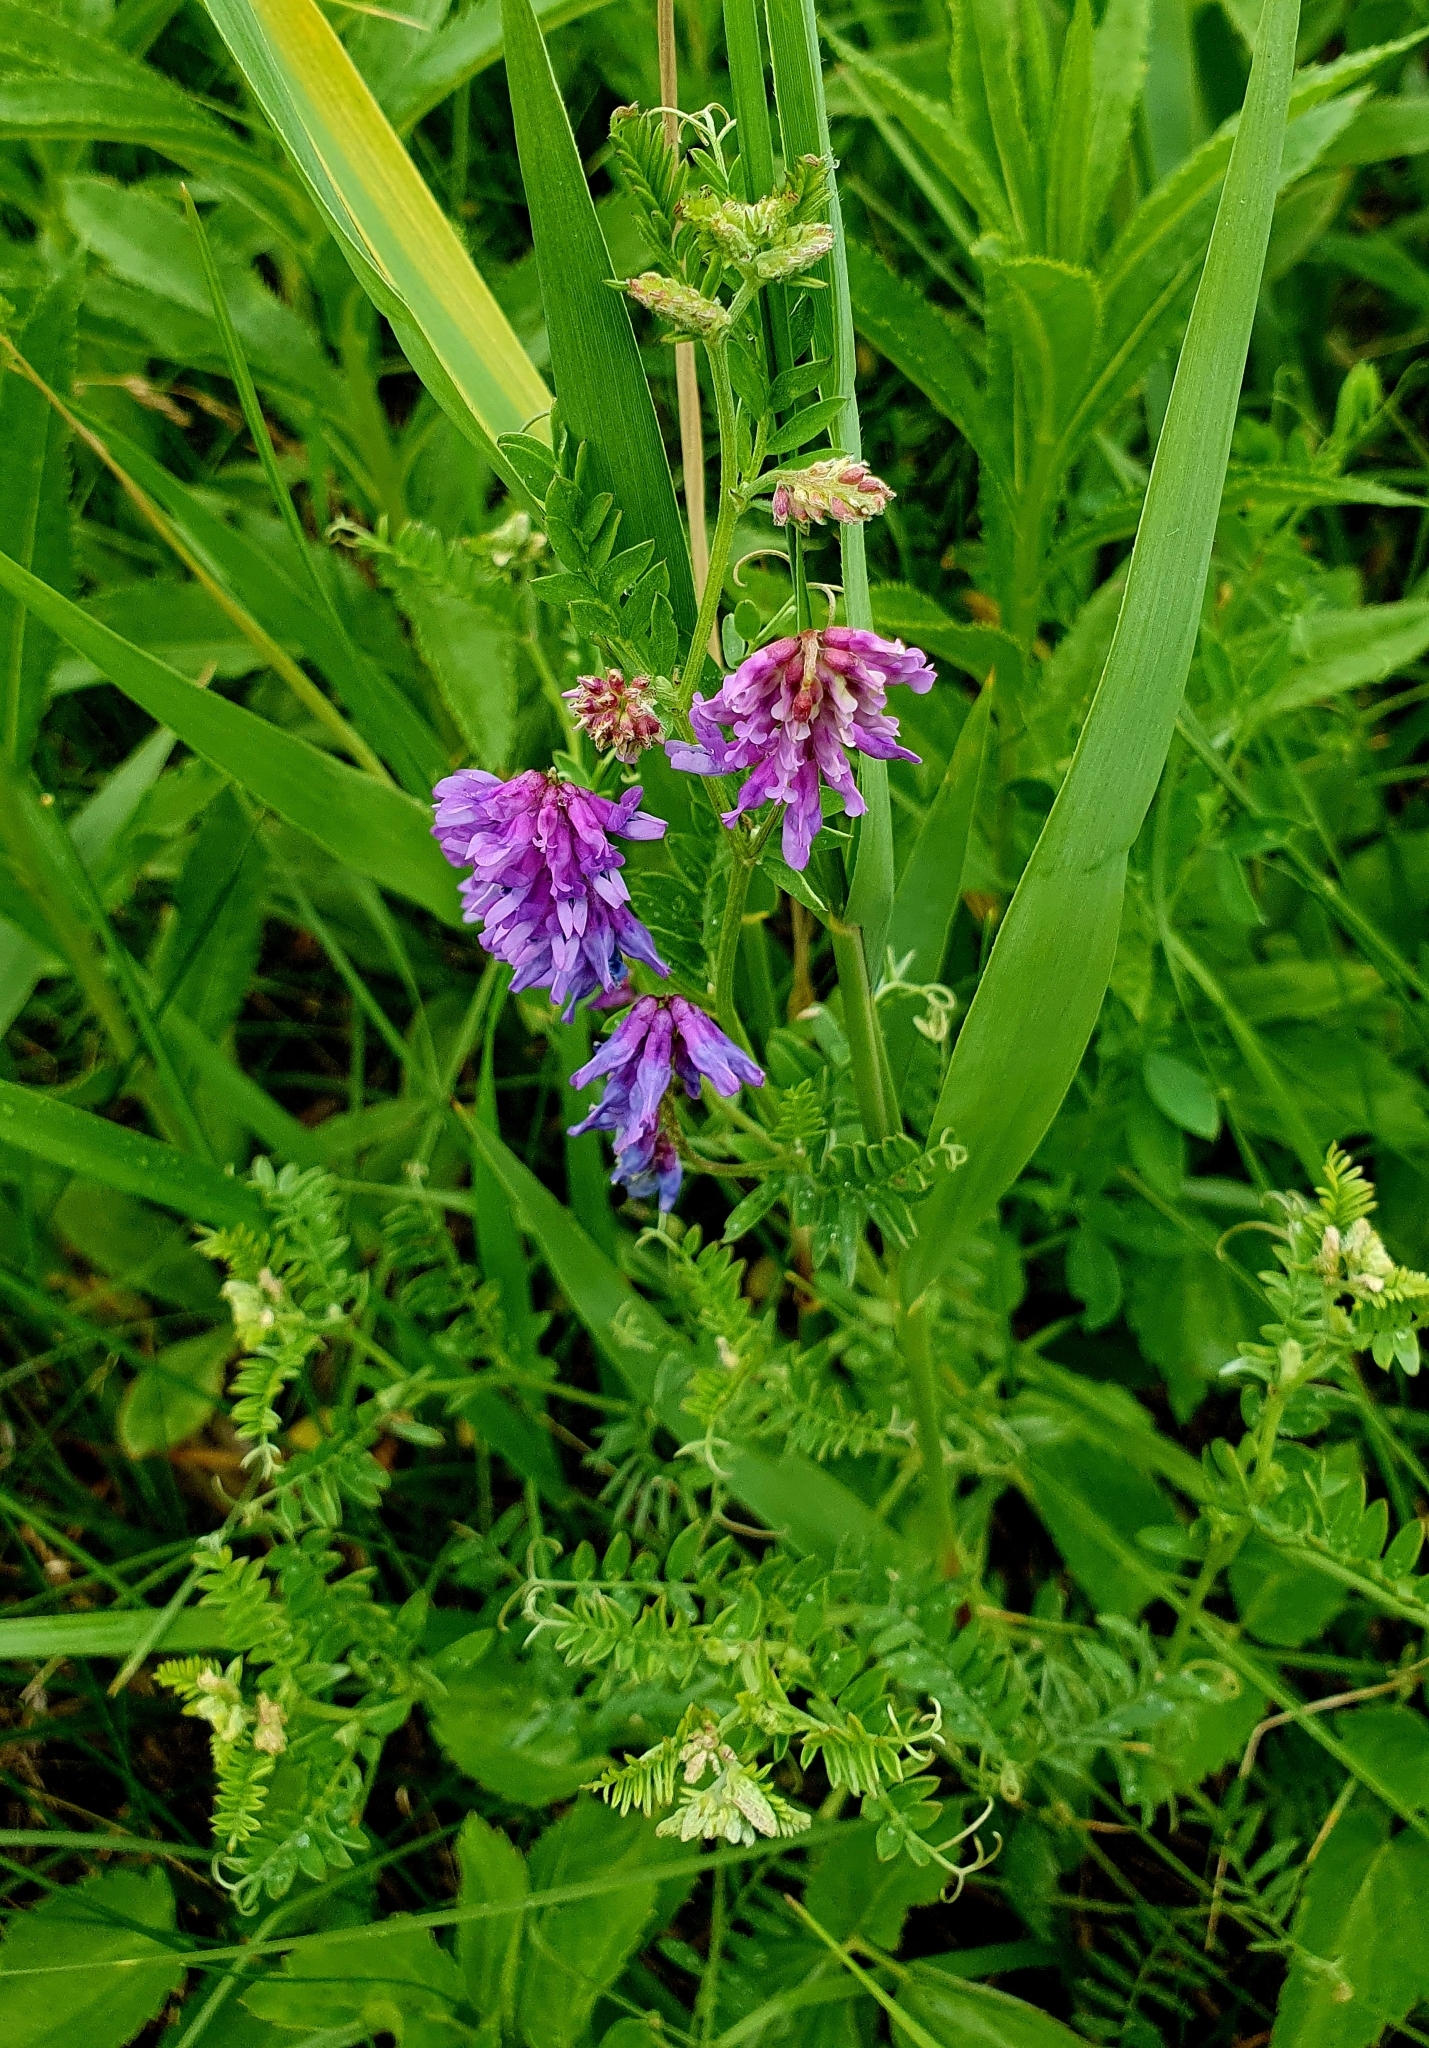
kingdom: Plantae
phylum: Tracheophyta
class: Magnoliopsida
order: Fabales
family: Fabaceae
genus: Vicia
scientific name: Vicia cracca
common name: Bird vetch
